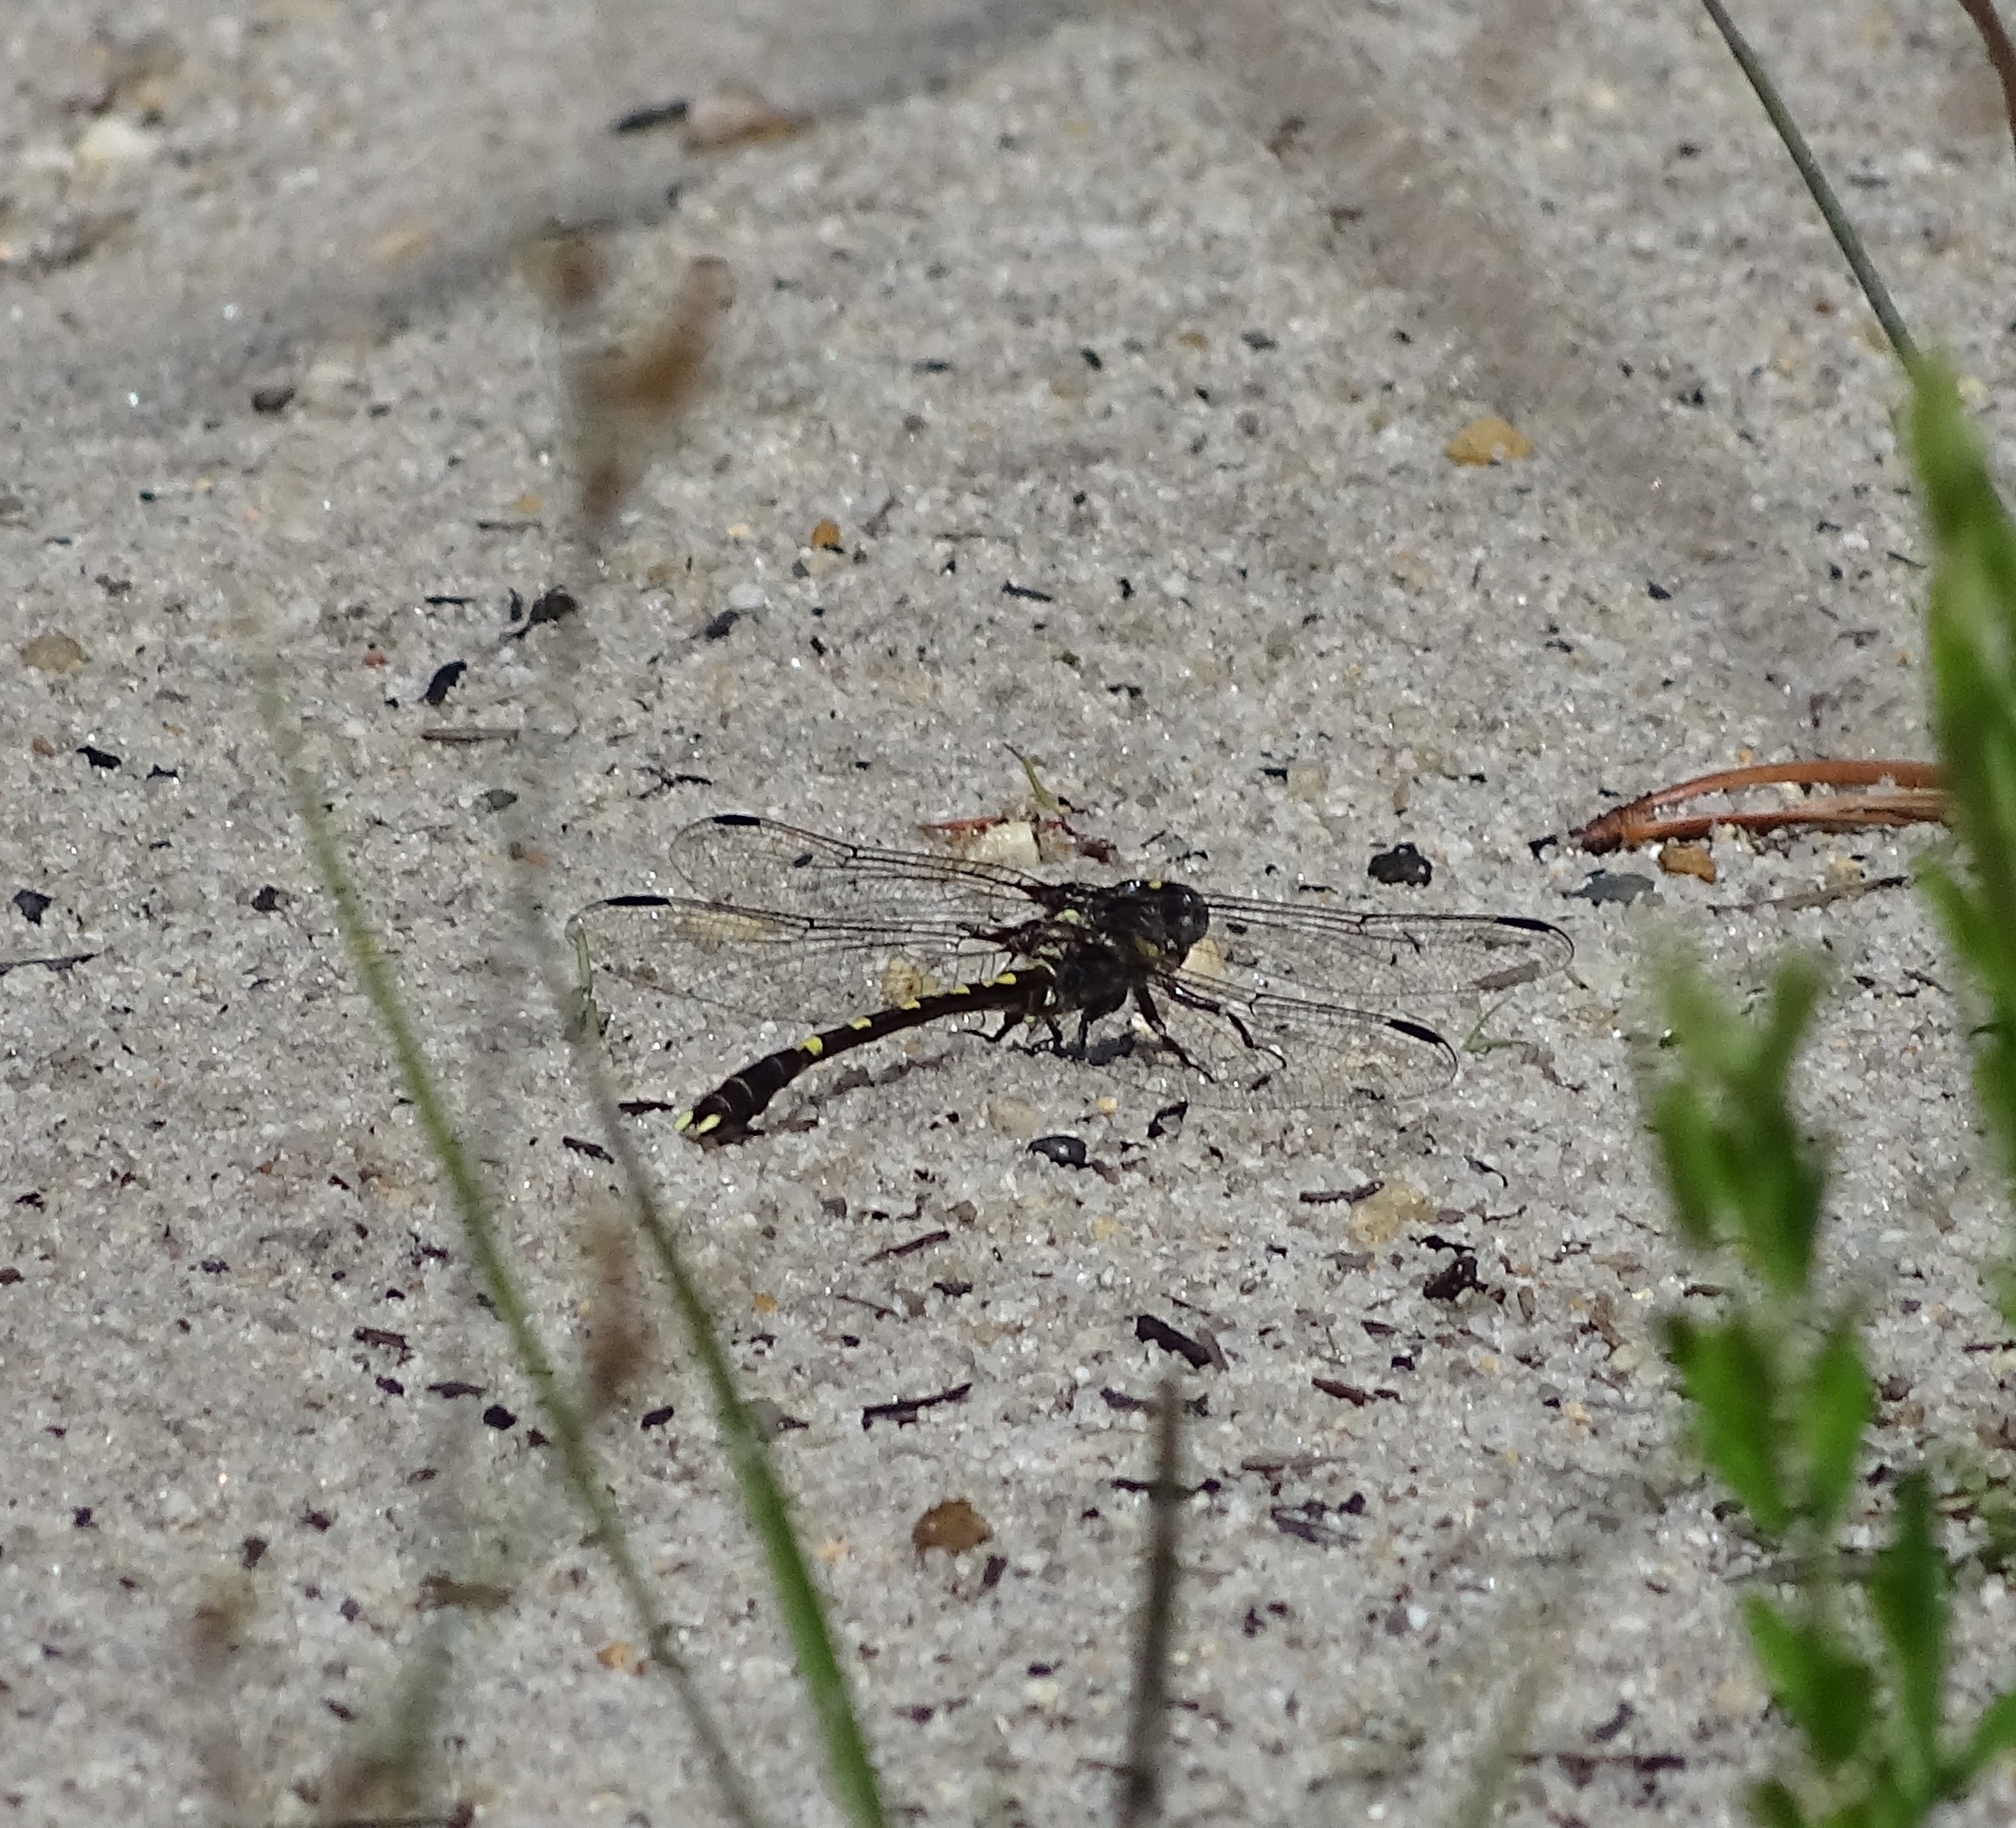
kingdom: Animalia
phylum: Arthropoda
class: Insecta
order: Odonata
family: Gomphidae
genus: Progomphus
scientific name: Progomphus obscurus
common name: Common sanddragon
